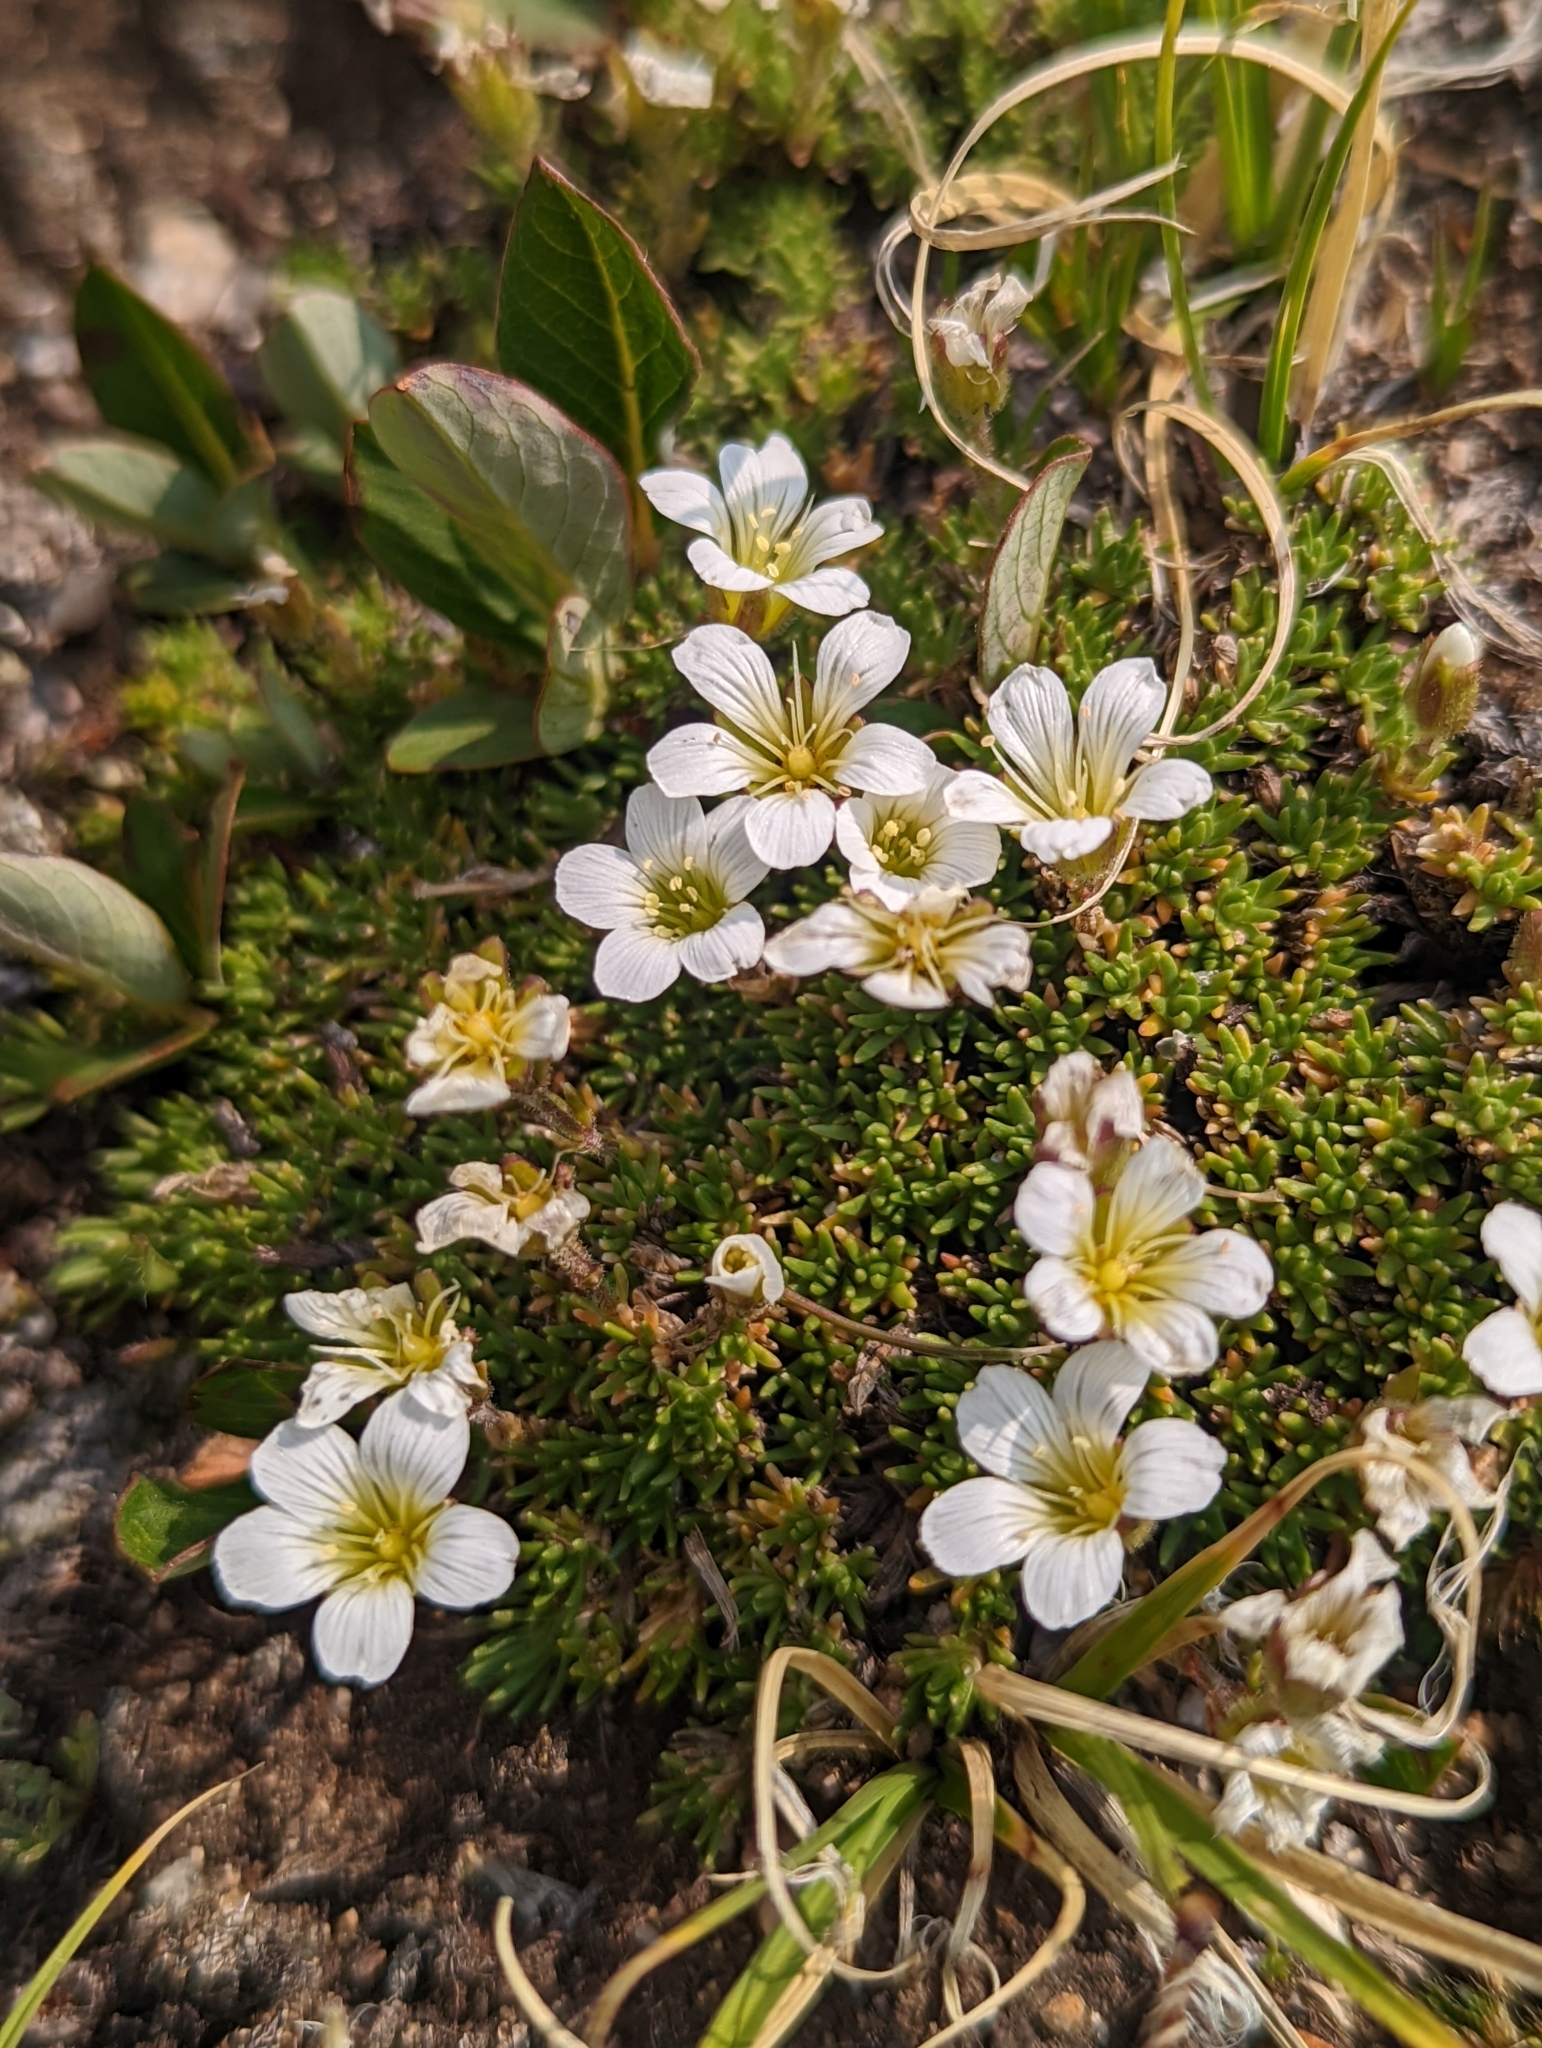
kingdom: Plantae
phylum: Tracheophyta
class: Magnoliopsida
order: Caryophyllales
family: Caryophyllaceae
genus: Cherleria
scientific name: Cherleria obtusiloba
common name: Alpine stitchwort
